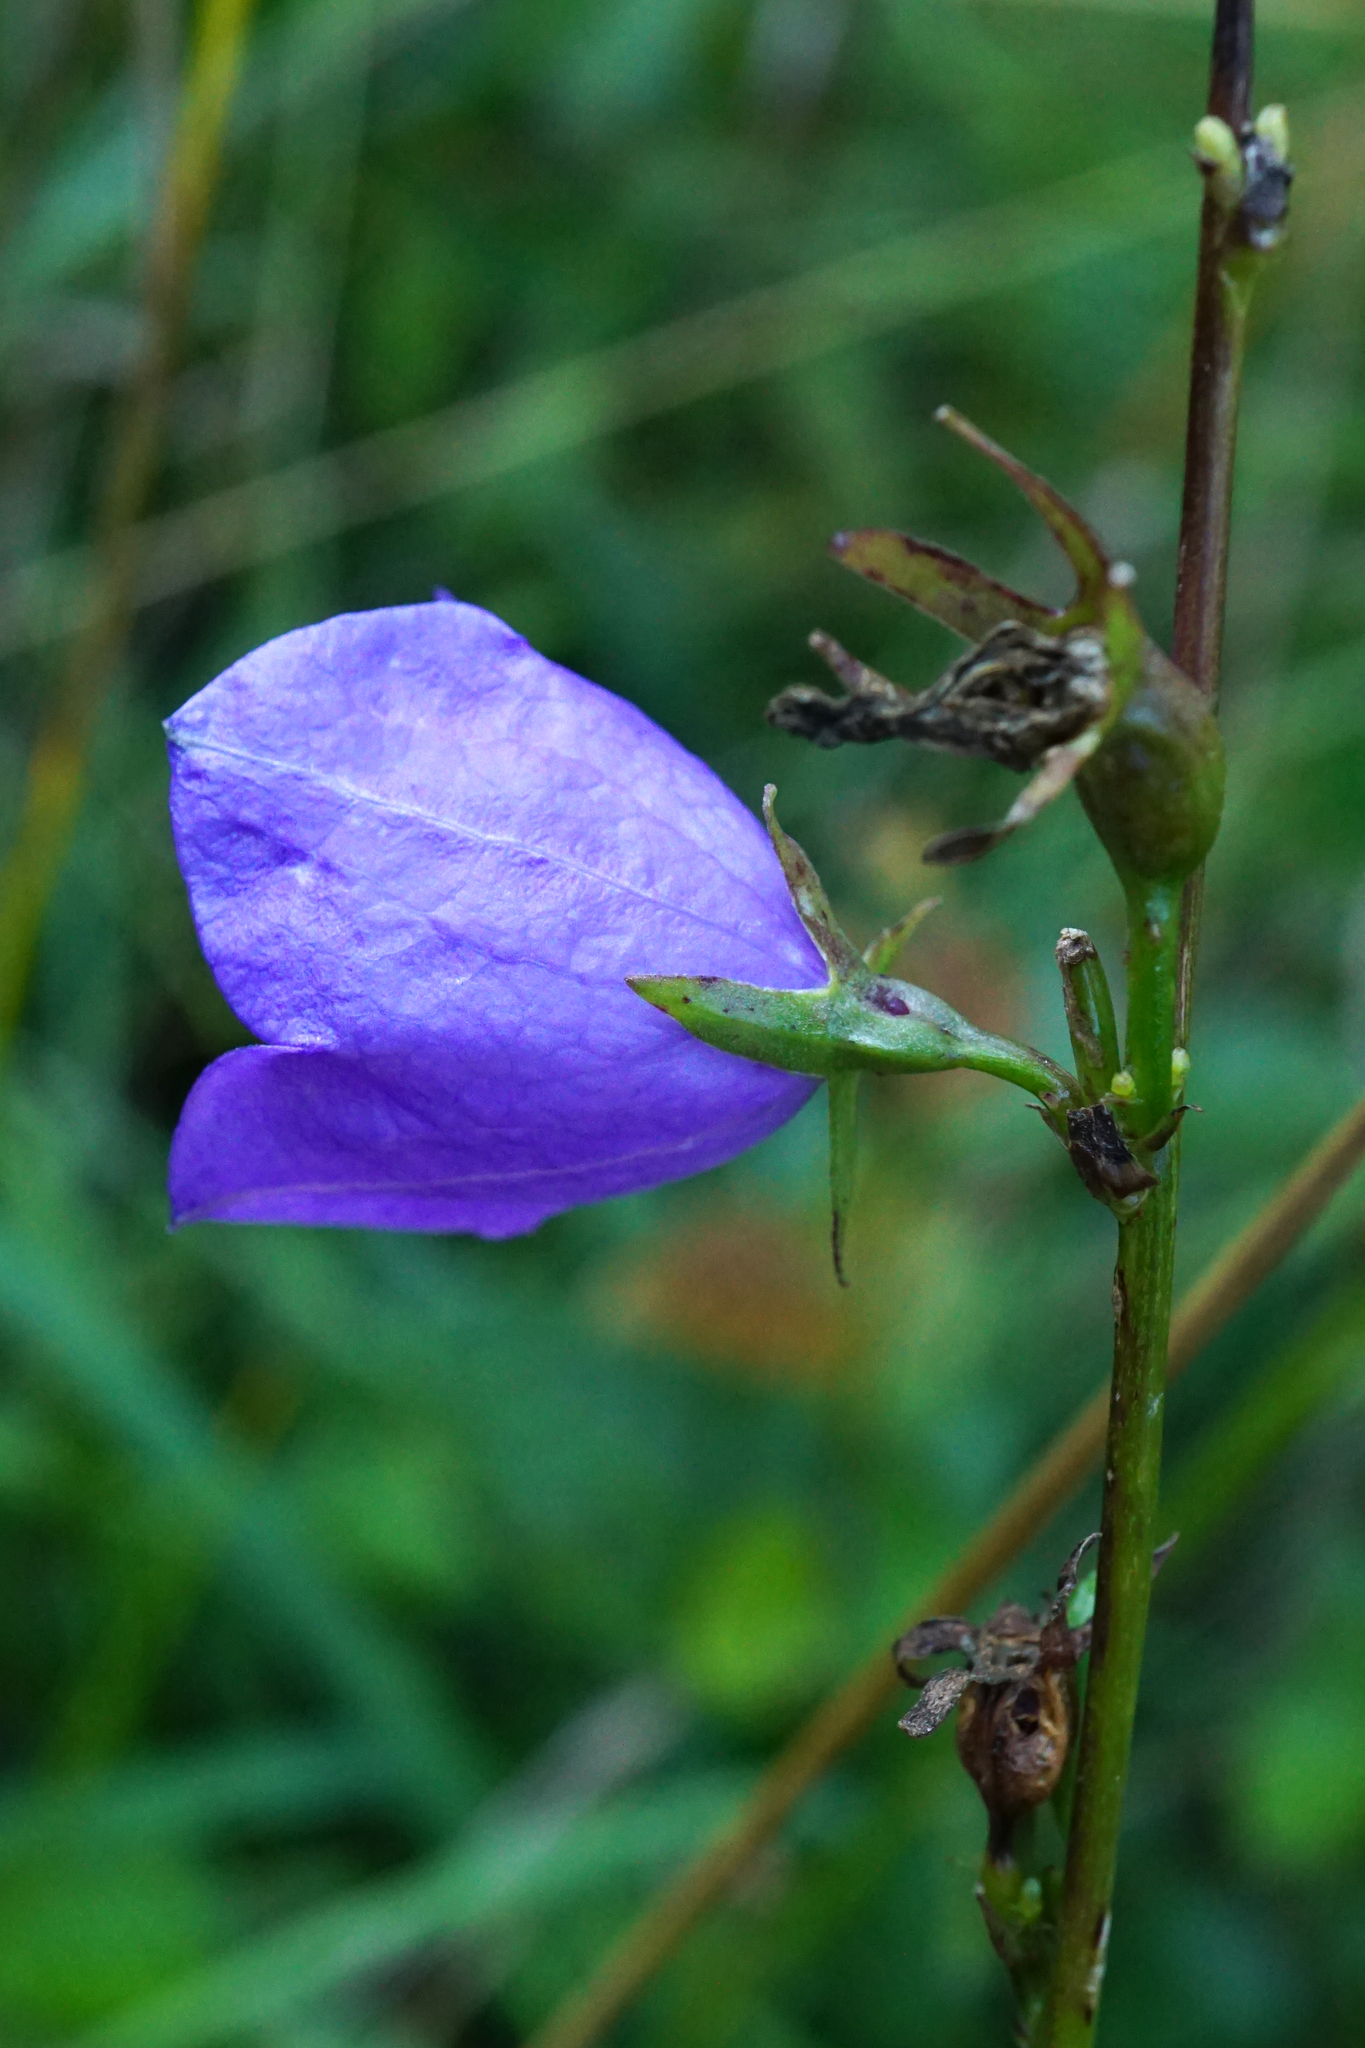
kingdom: Plantae
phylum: Tracheophyta
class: Magnoliopsida
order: Asterales
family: Campanulaceae
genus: Campanula
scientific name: Campanula persicifolia
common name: Peach-leaved bellflower
